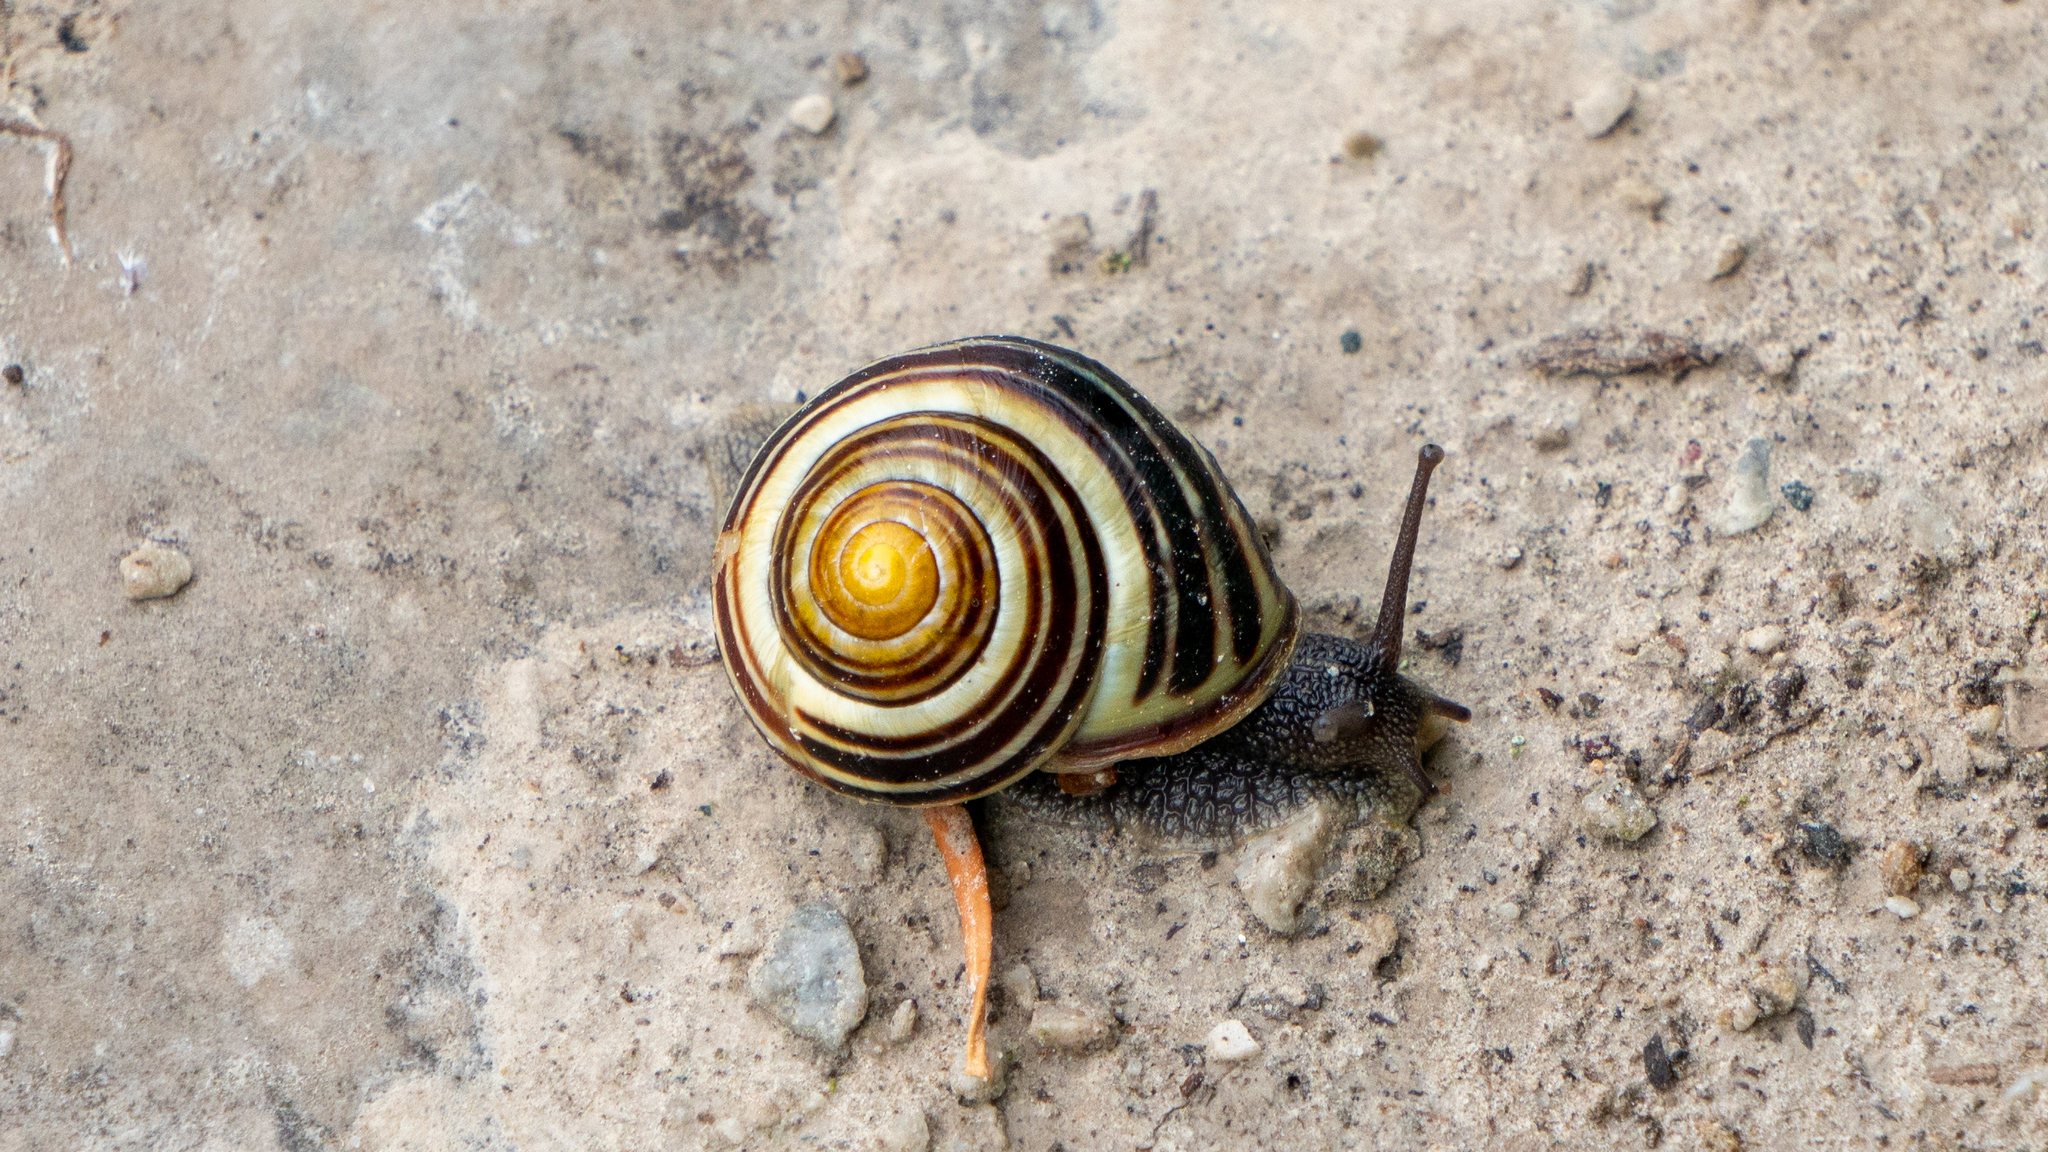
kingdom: Animalia
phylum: Mollusca
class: Gastropoda
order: Stylommatophora
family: Helicidae
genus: Cepaea
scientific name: Cepaea nemoralis
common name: Grovesnail
